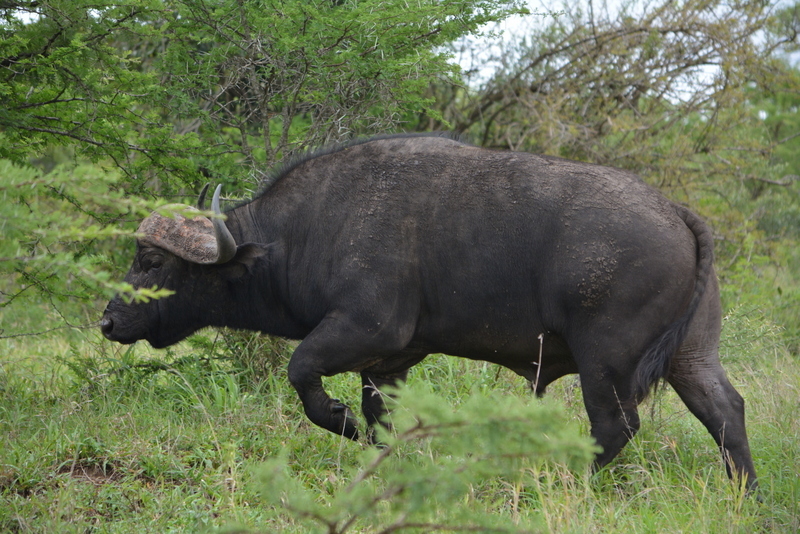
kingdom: Animalia
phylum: Chordata
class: Mammalia
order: Artiodactyla
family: Bovidae
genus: Syncerus
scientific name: Syncerus caffer
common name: African buffalo
